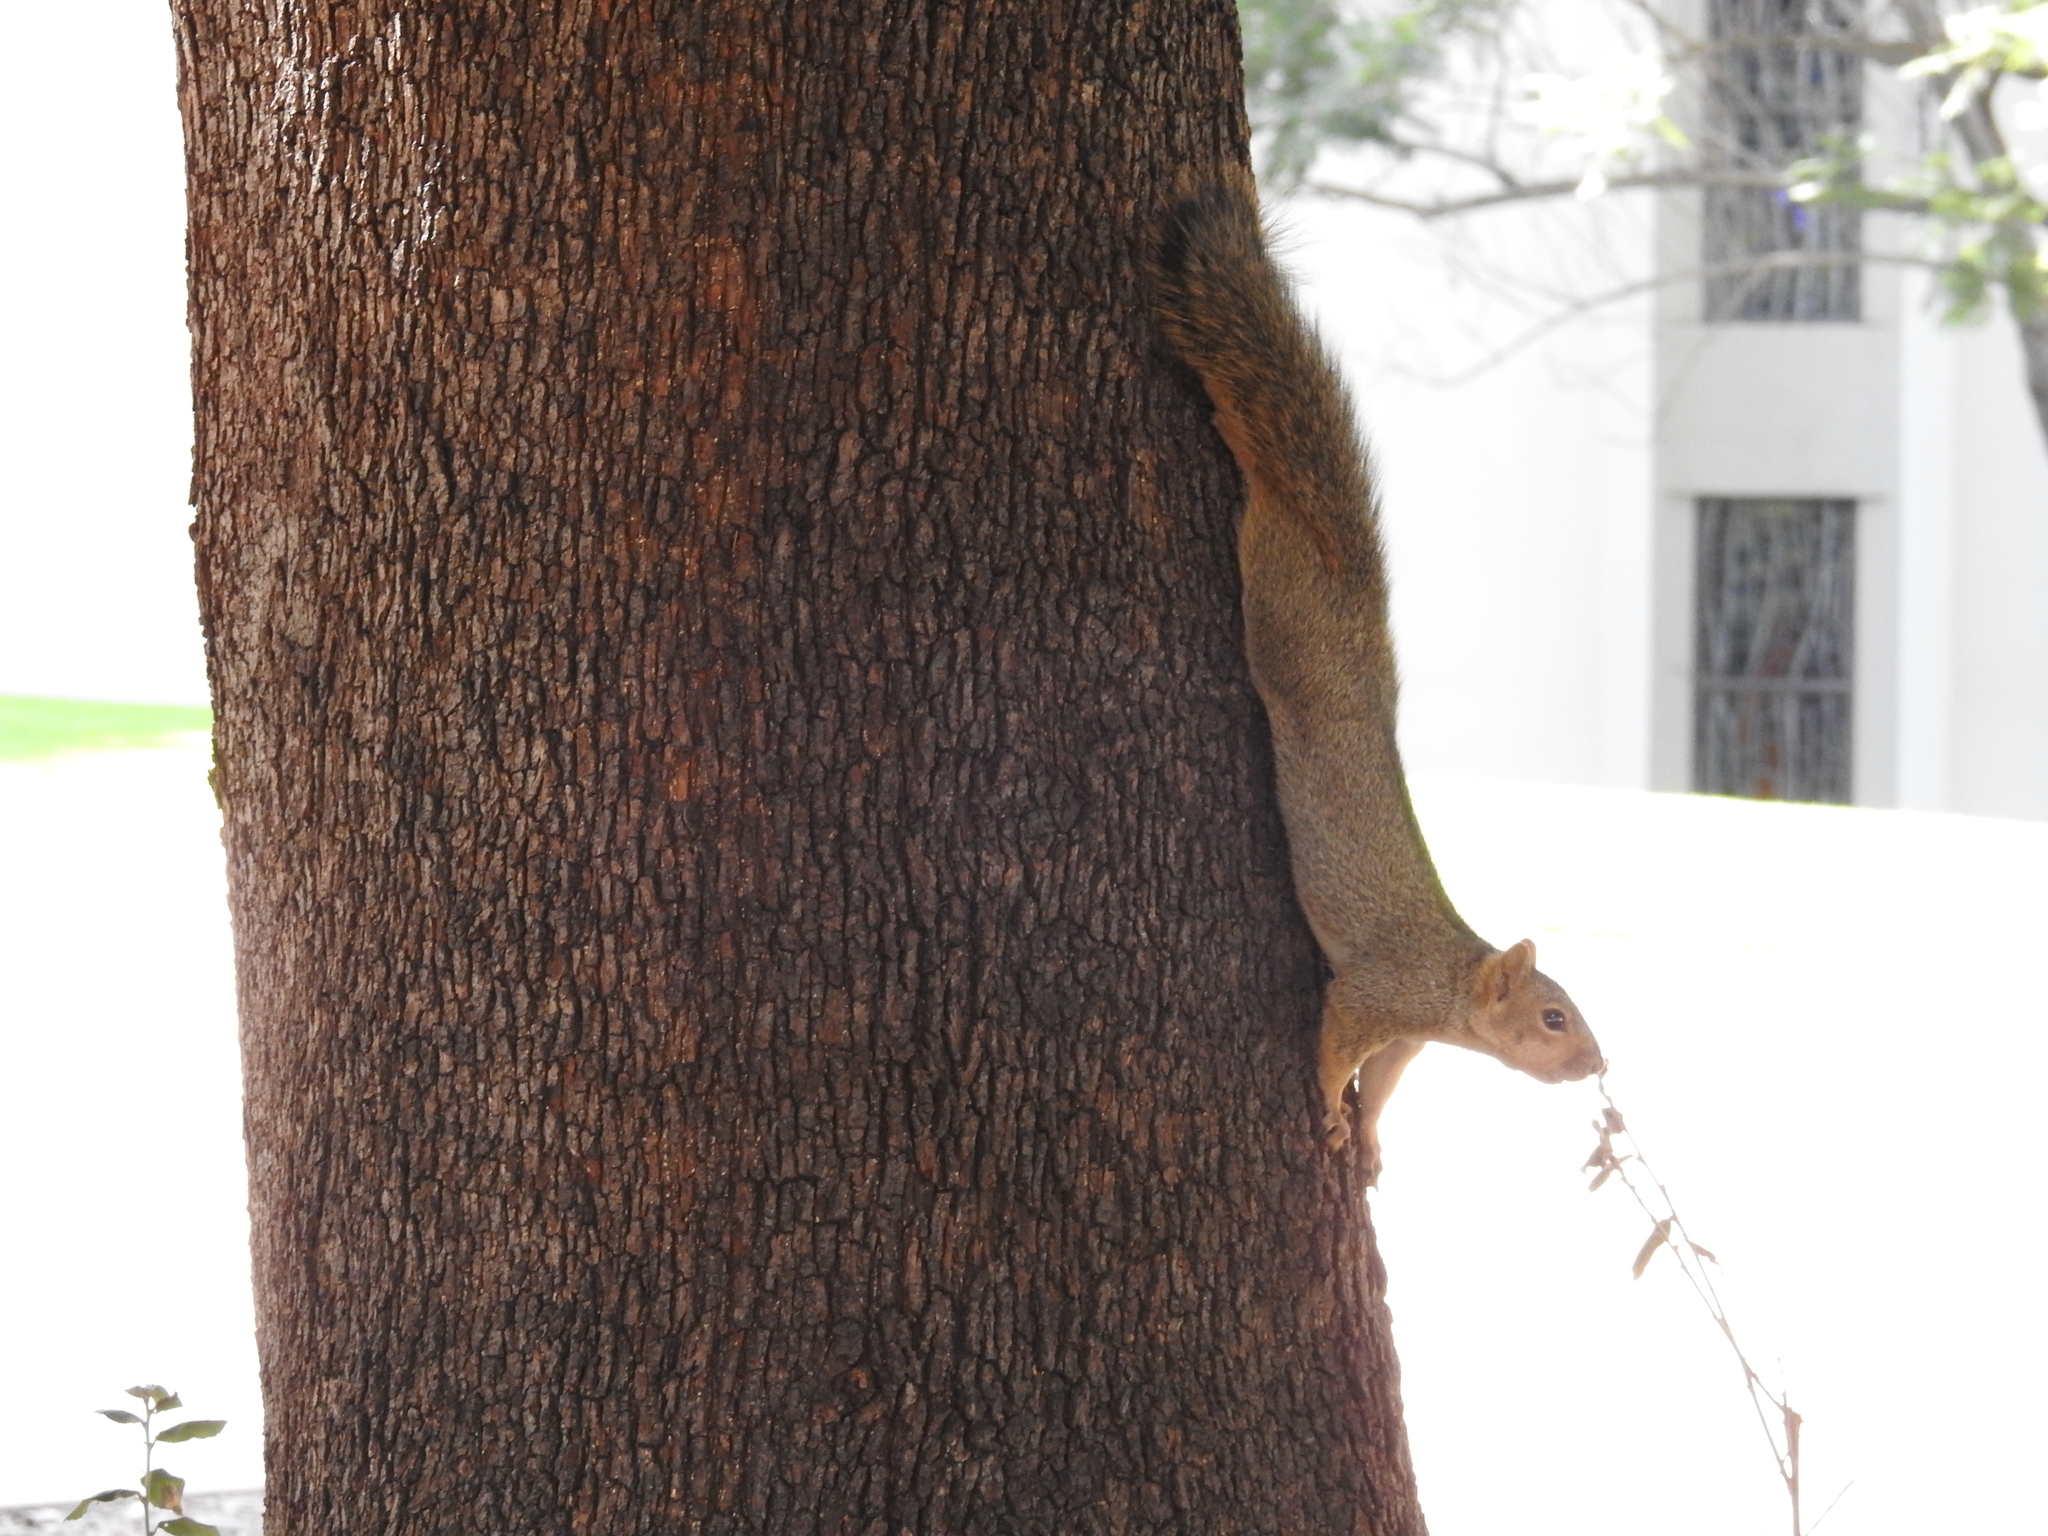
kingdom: Animalia
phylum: Chordata
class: Mammalia
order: Rodentia
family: Sciuridae
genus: Sciurus
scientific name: Sciurus niger
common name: Fox squirrel
